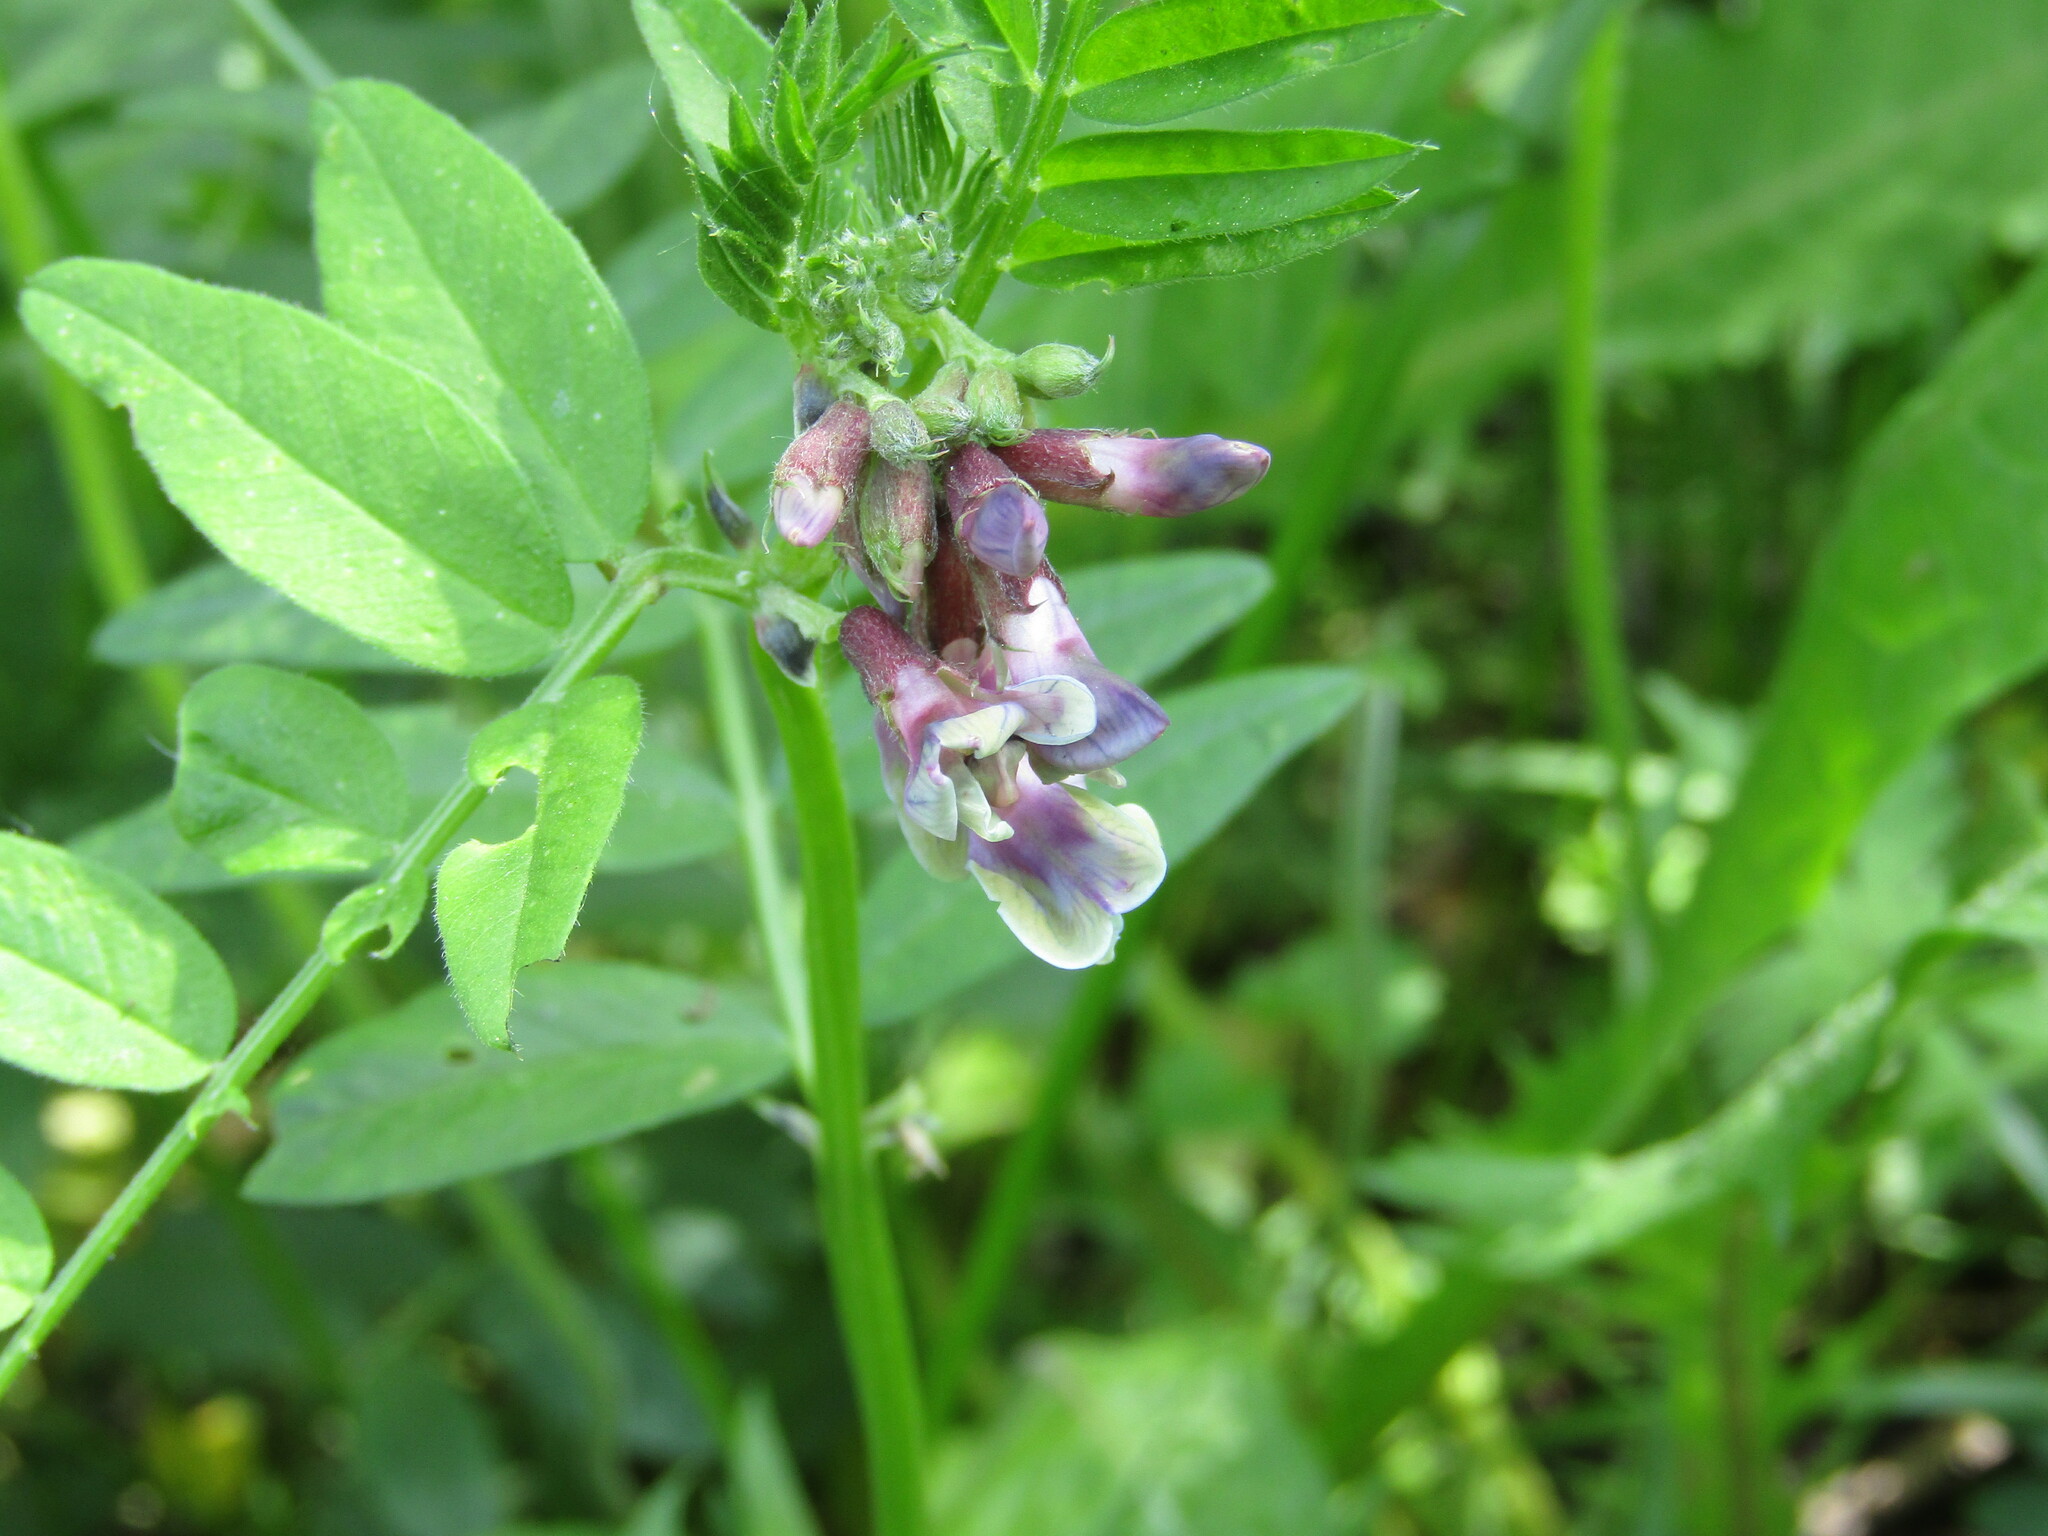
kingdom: Plantae
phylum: Tracheophyta
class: Magnoliopsida
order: Fabales
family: Fabaceae
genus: Vicia
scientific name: Vicia sepium
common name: Bush vetch
